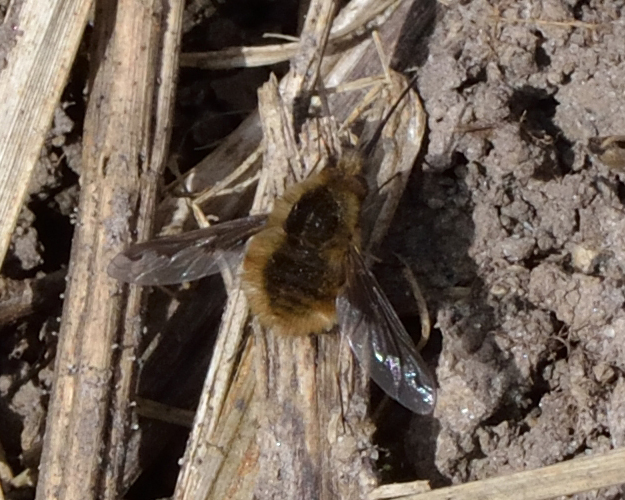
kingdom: Animalia
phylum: Arthropoda
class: Insecta
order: Diptera
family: Bombyliidae
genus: Bombylius
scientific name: Bombylius major
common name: Bee fly
